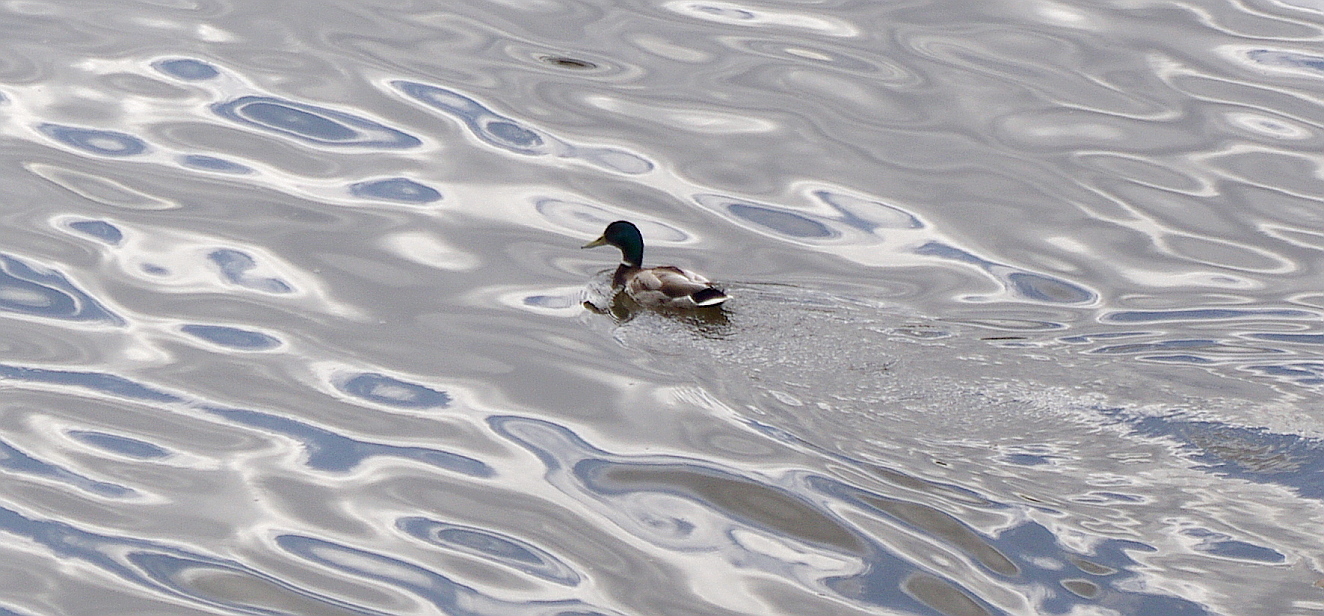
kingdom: Animalia
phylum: Chordata
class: Aves
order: Anseriformes
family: Anatidae
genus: Anas
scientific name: Anas platyrhynchos
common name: Mallard
